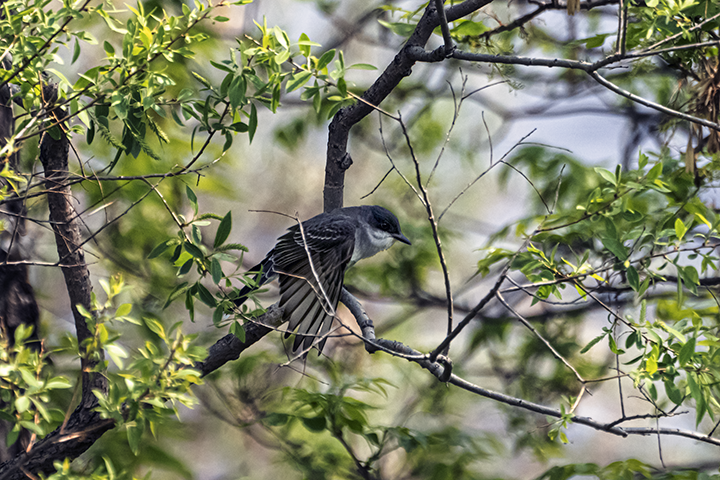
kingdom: Animalia
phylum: Chordata
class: Aves
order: Passeriformes
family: Tyrannidae
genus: Tyrannus
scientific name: Tyrannus tyrannus
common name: Eastern kingbird
